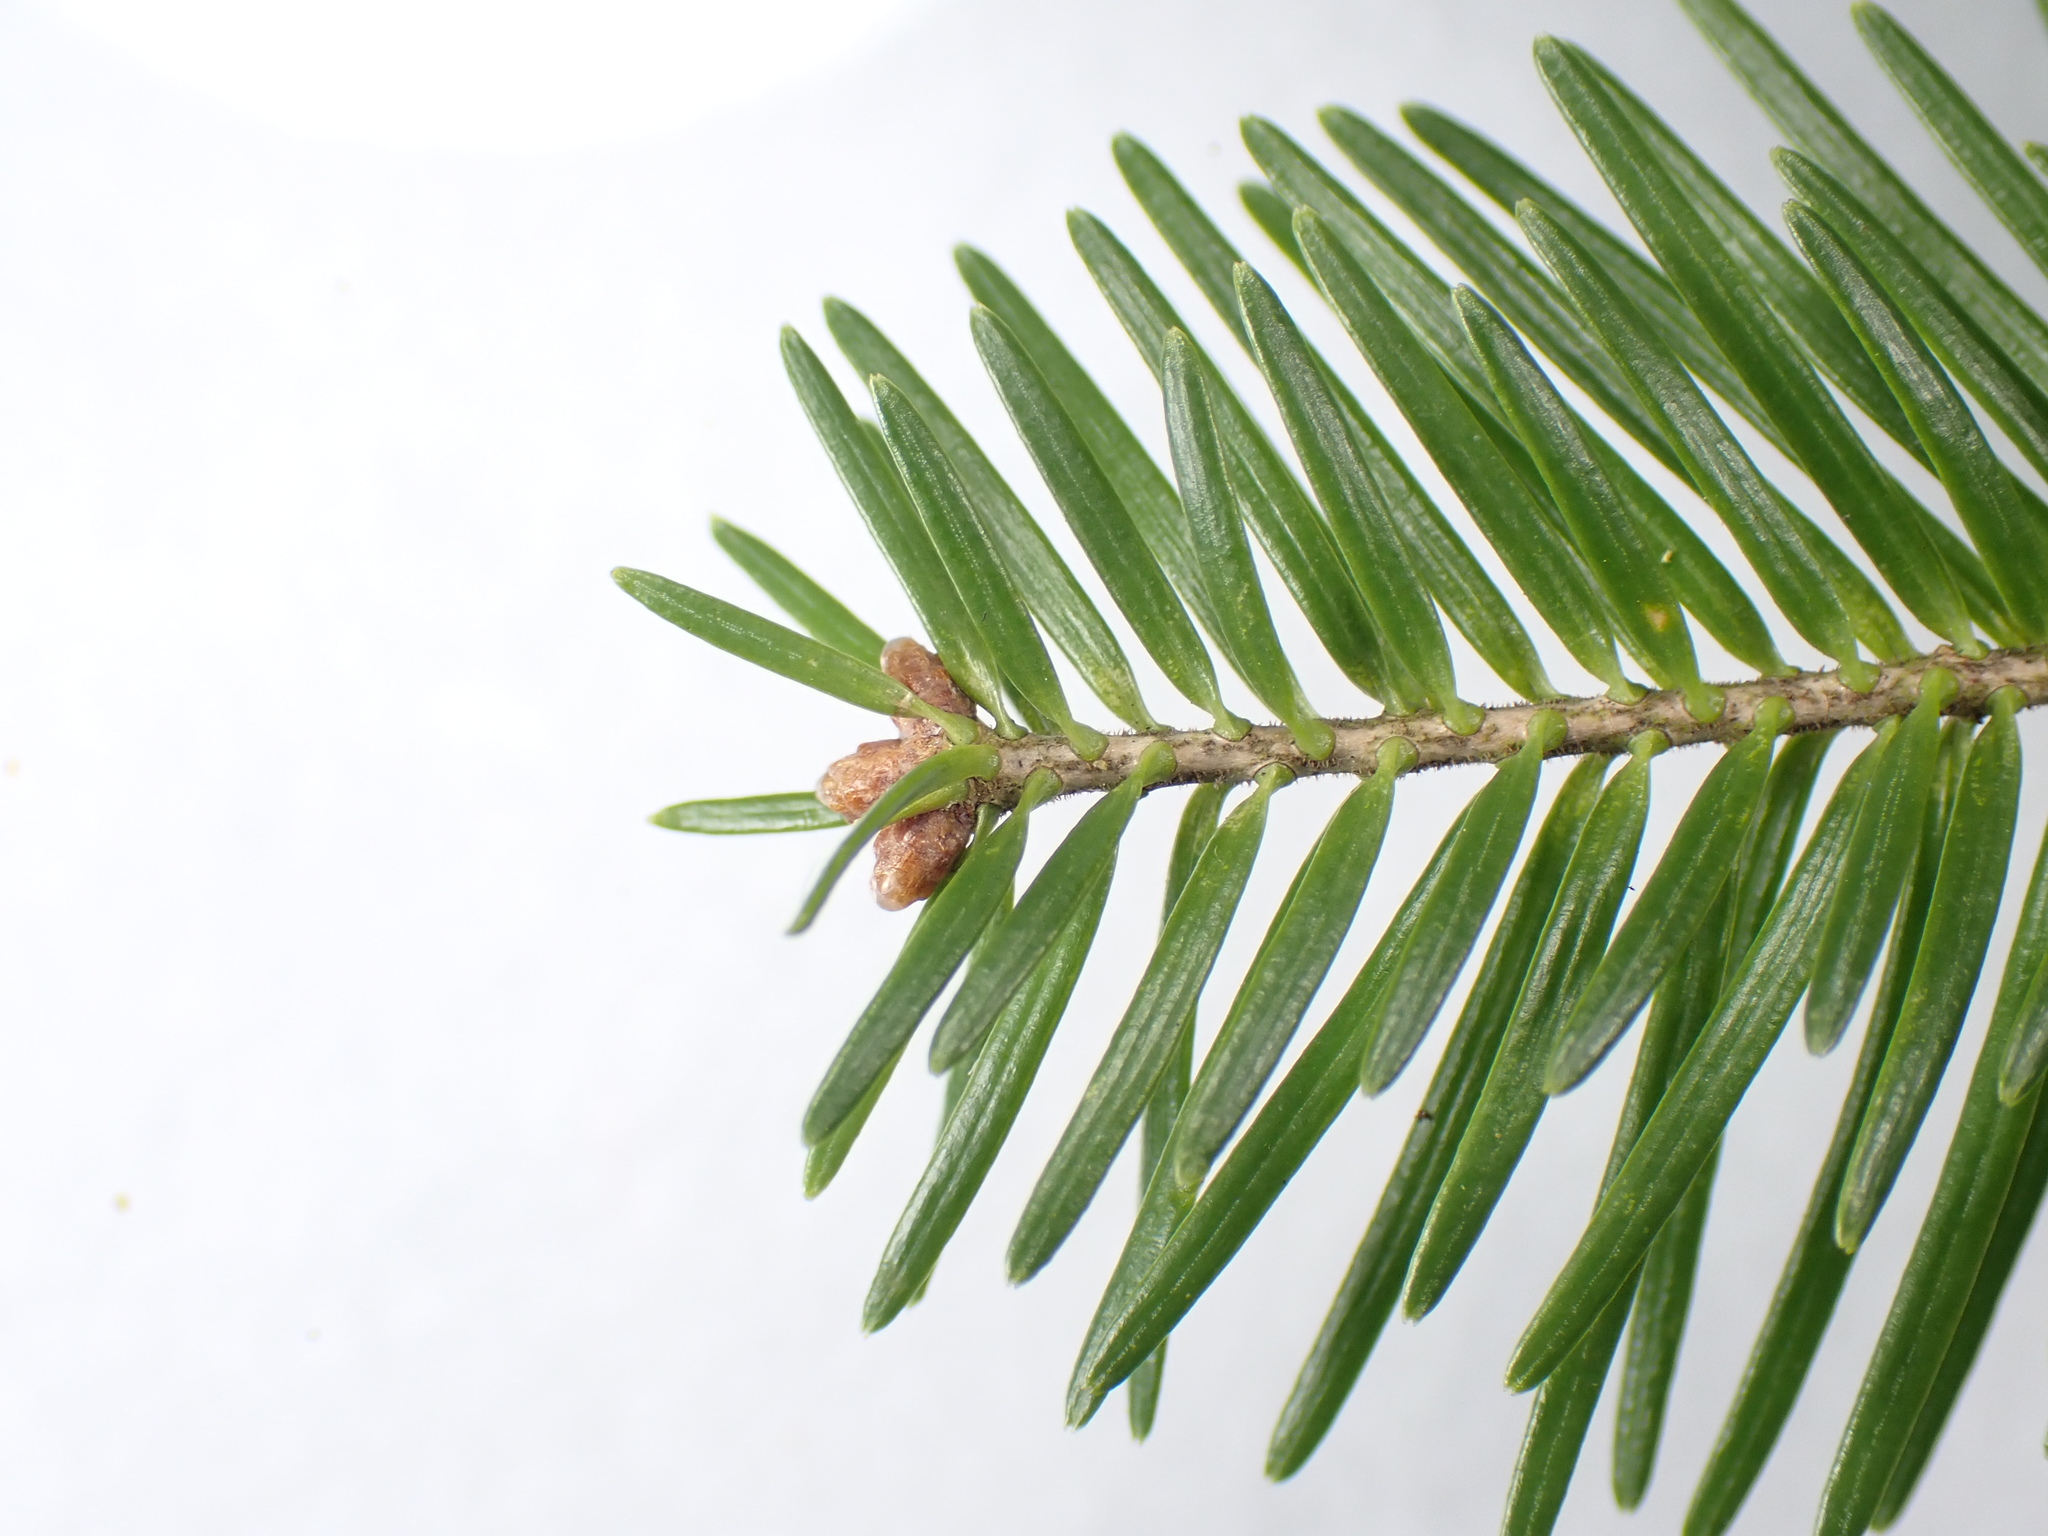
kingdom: Plantae
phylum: Tracheophyta
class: Pinopsida
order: Pinales
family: Pinaceae
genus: Abies
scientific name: Abies balsamea
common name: Balsam fir
